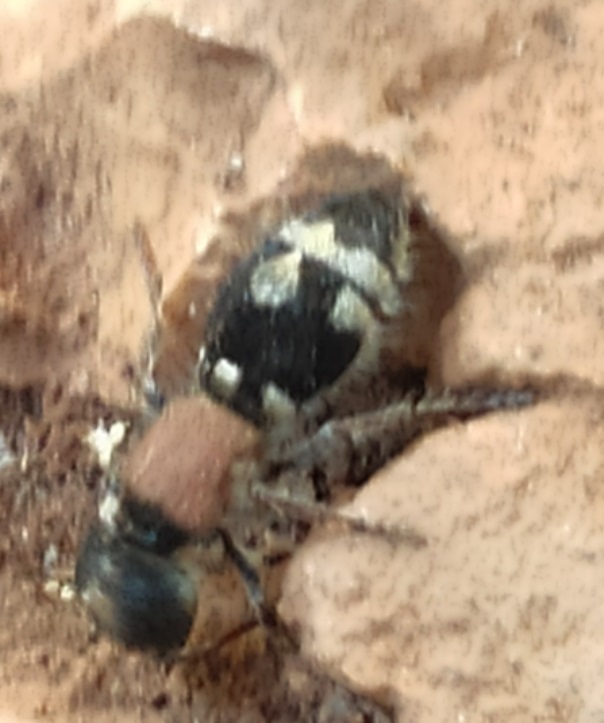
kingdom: Animalia
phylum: Arthropoda
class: Insecta
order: Hymenoptera
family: Mutillidae
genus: Ronisia
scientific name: Ronisia barbarula
